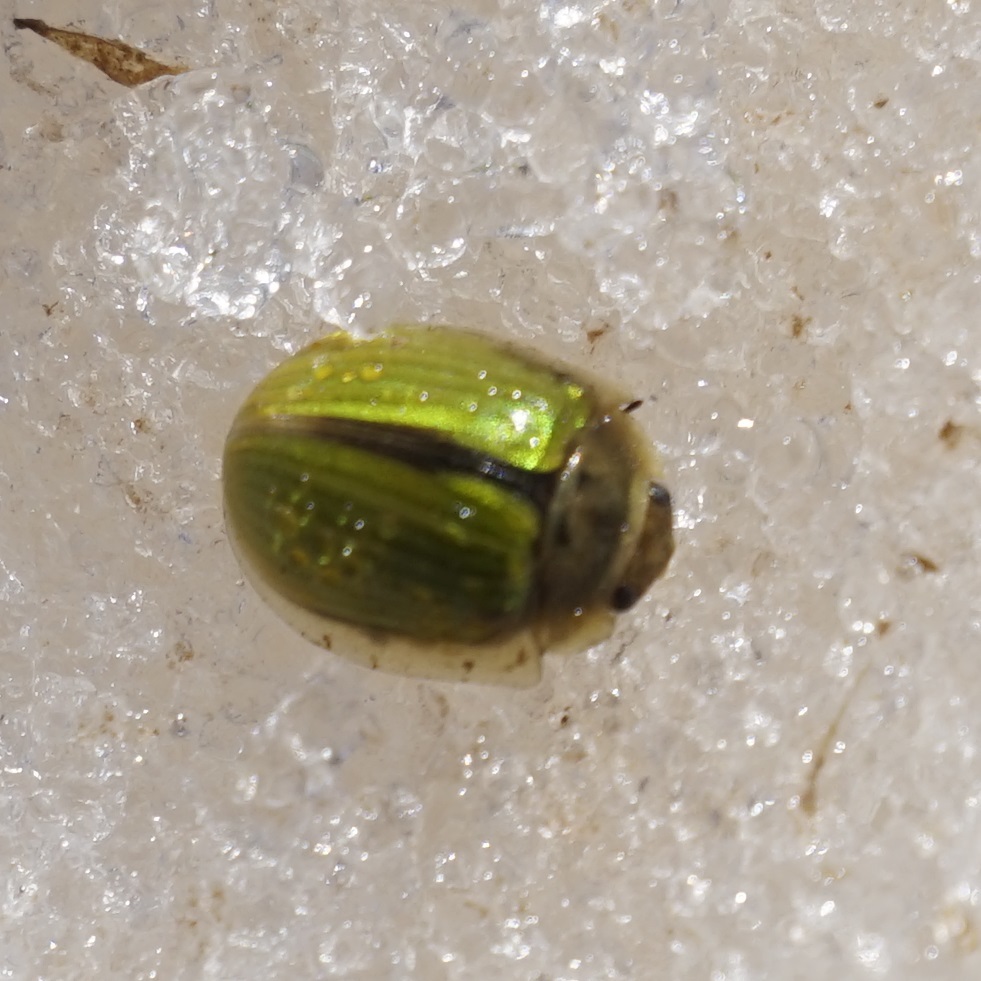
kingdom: Animalia
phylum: Arthropoda
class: Insecta
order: Coleoptera
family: Chrysomelidae
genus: Paropsisterna
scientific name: Paropsisterna
